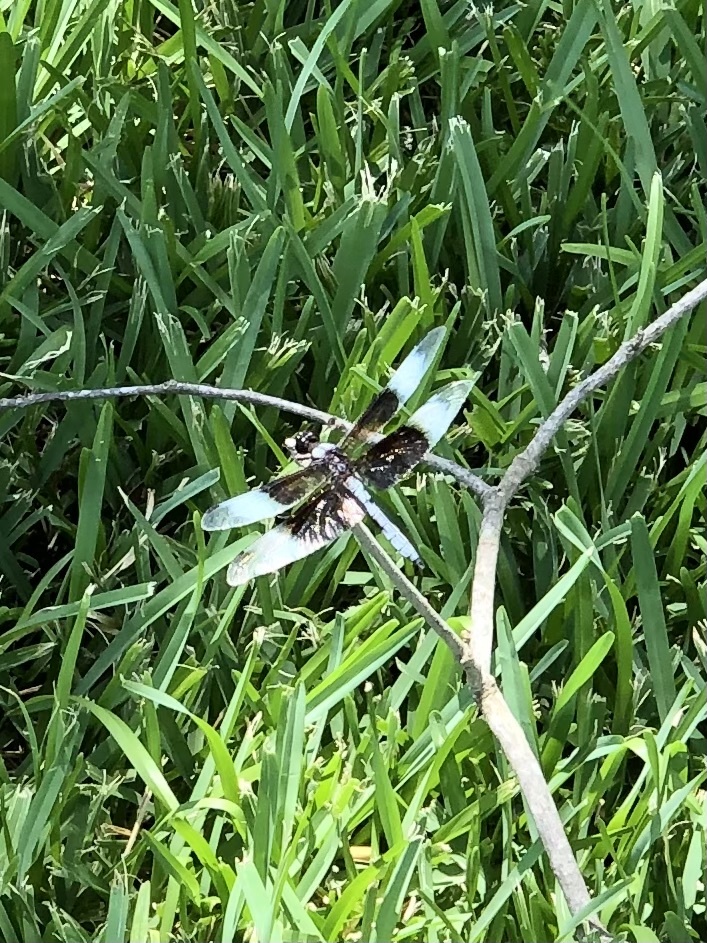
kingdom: Animalia
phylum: Arthropoda
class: Insecta
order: Odonata
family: Libellulidae
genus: Libellula
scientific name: Libellula luctuosa
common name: Widow skimmer
